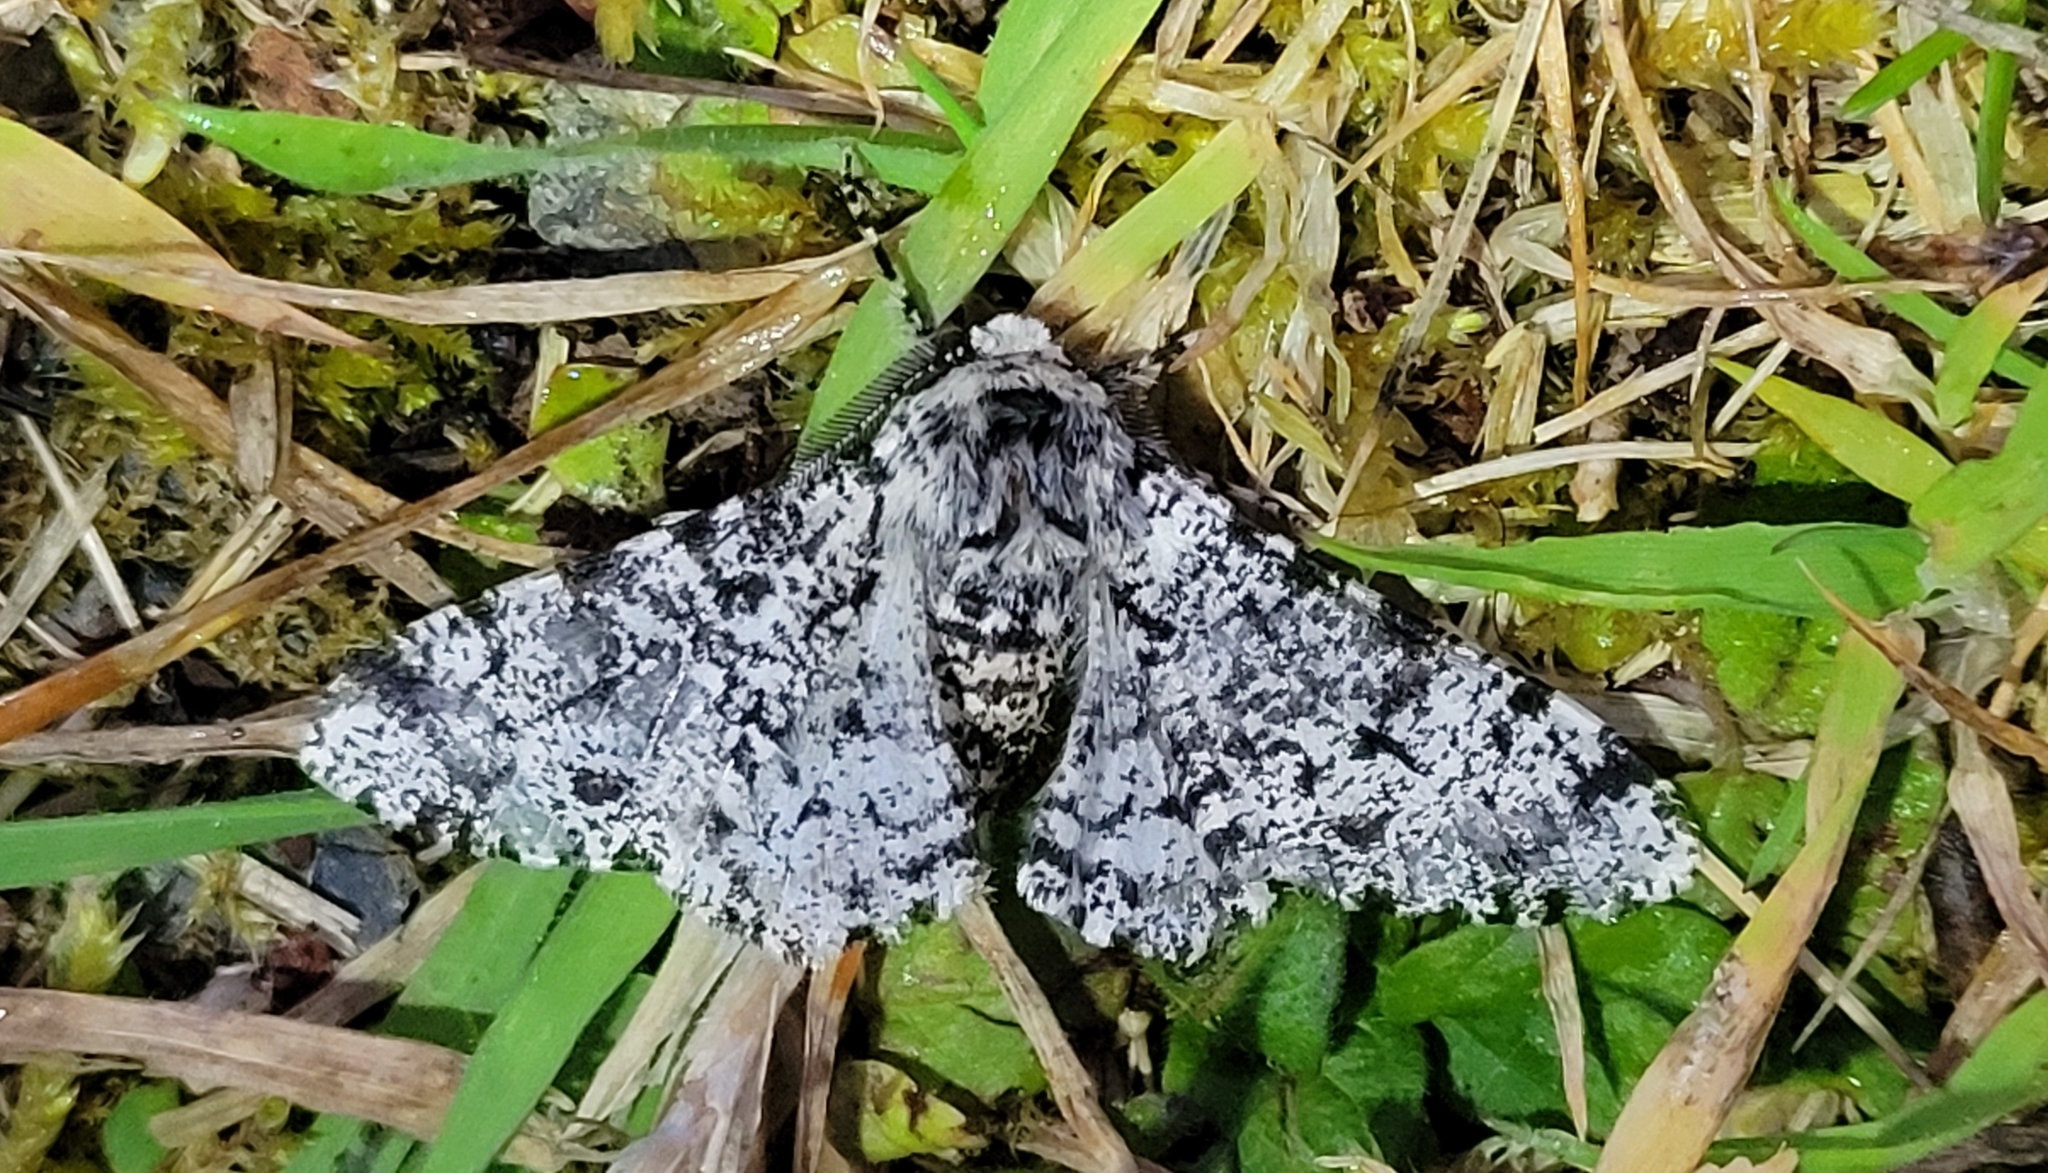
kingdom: Animalia
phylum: Arthropoda
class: Insecta
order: Lepidoptera
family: Geometridae
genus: Biston
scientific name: Biston betularia
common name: Peppered moth
